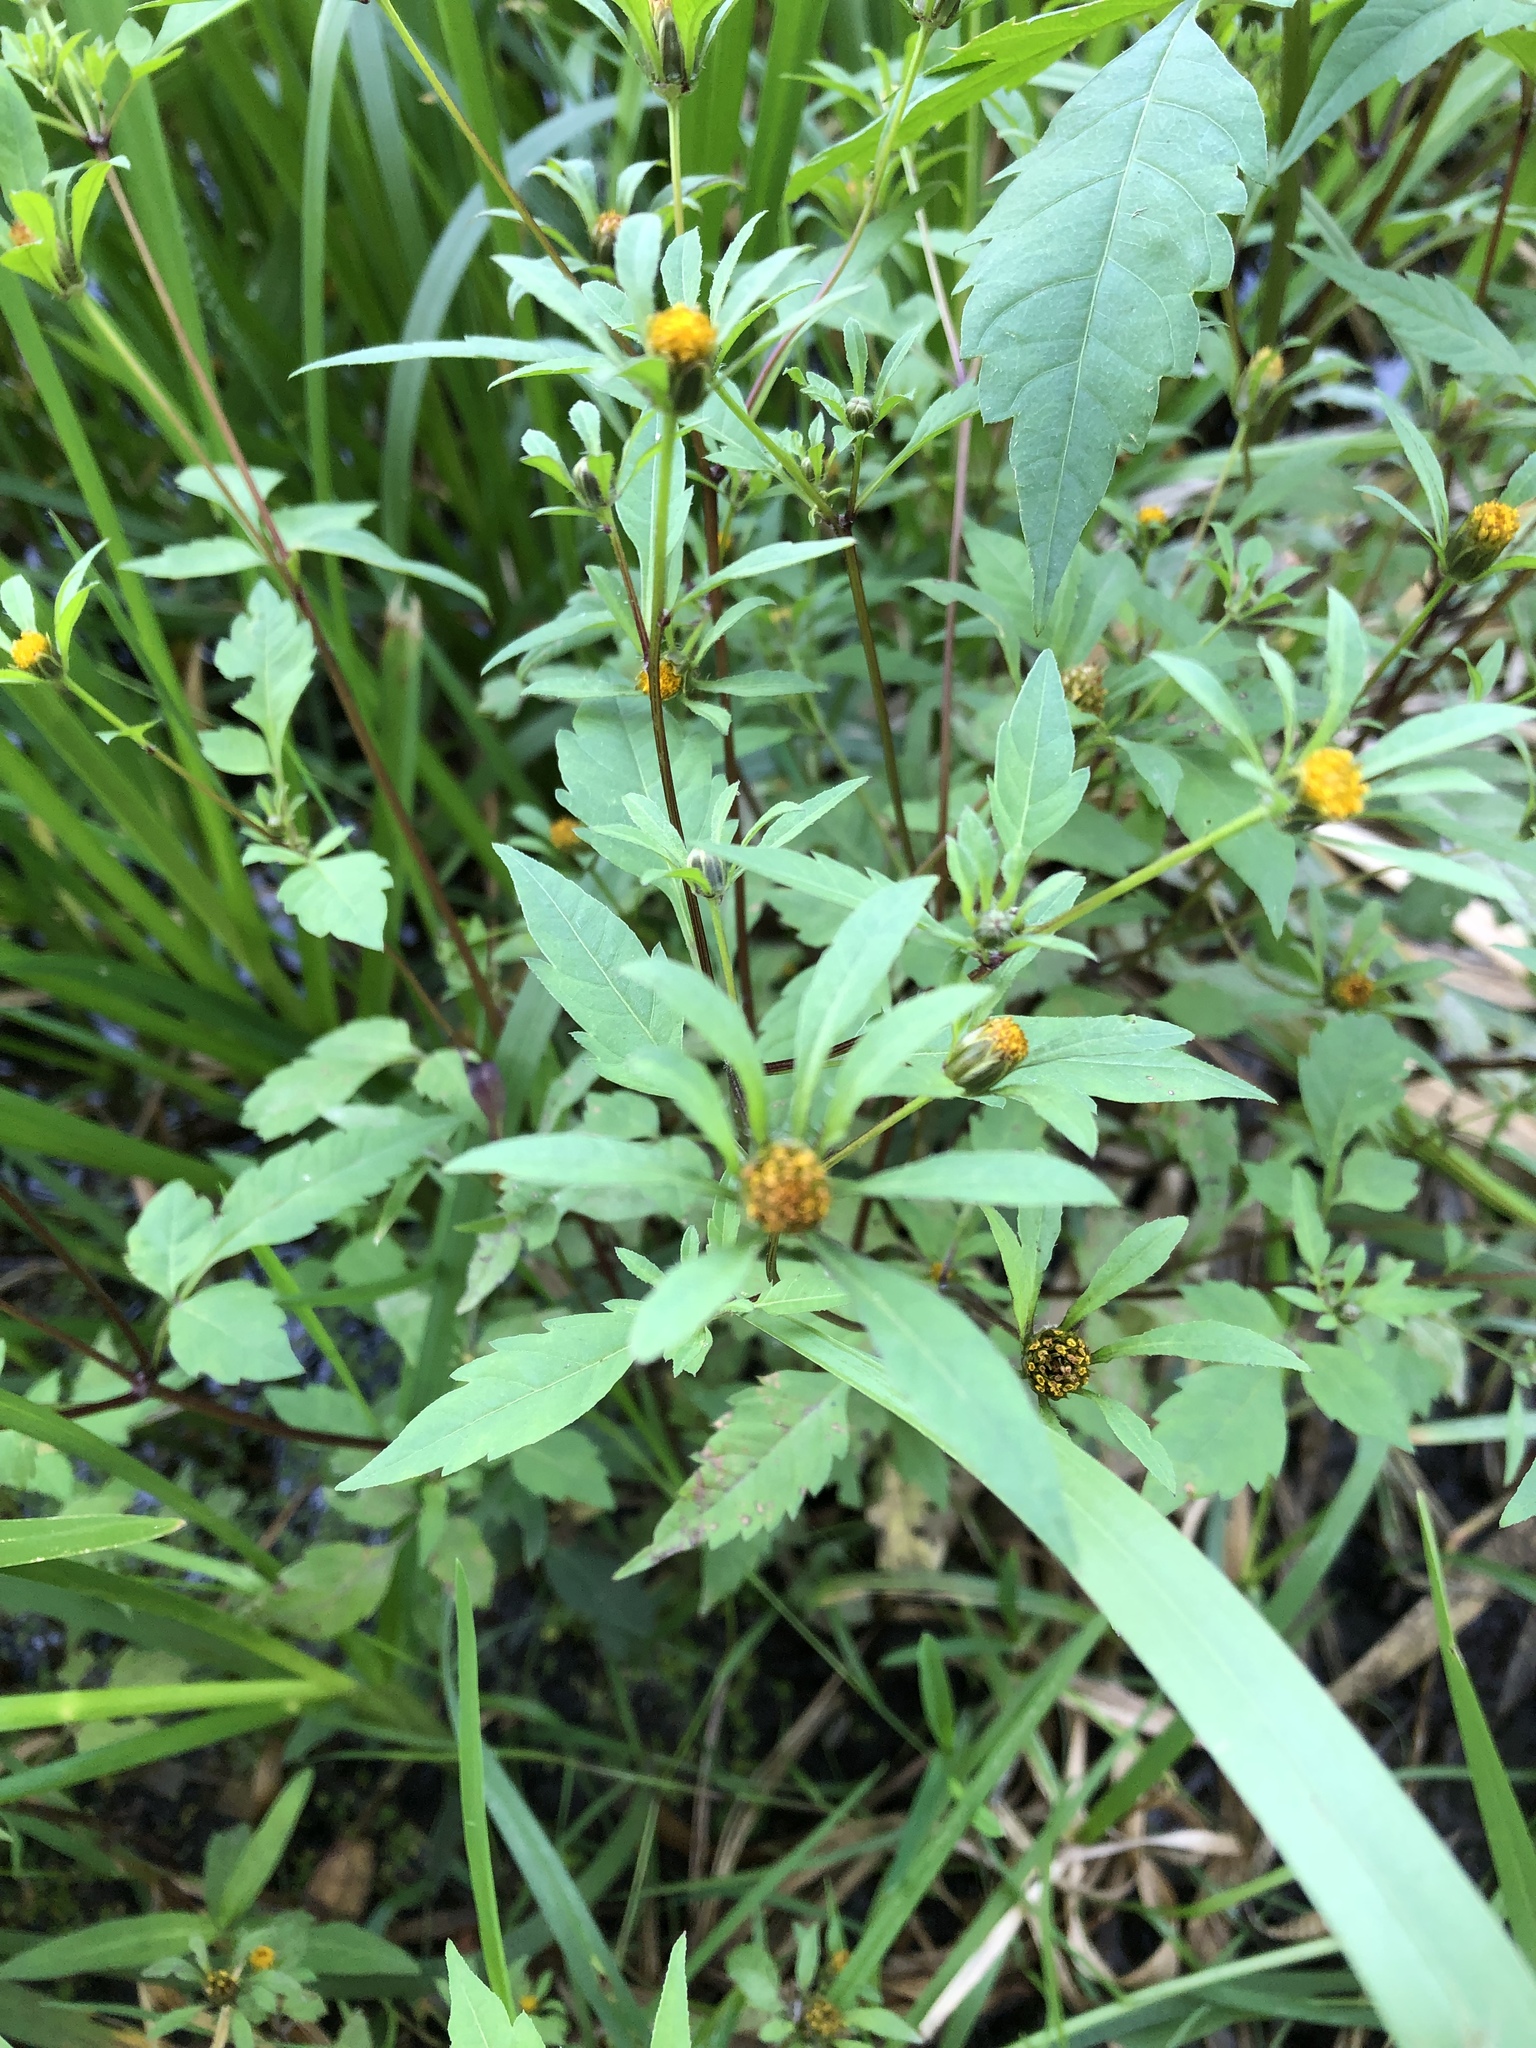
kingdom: Plantae
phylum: Tracheophyta
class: Magnoliopsida
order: Asterales
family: Asteraceae
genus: Bidens
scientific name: Bidens frondosa
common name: Beggarticks
